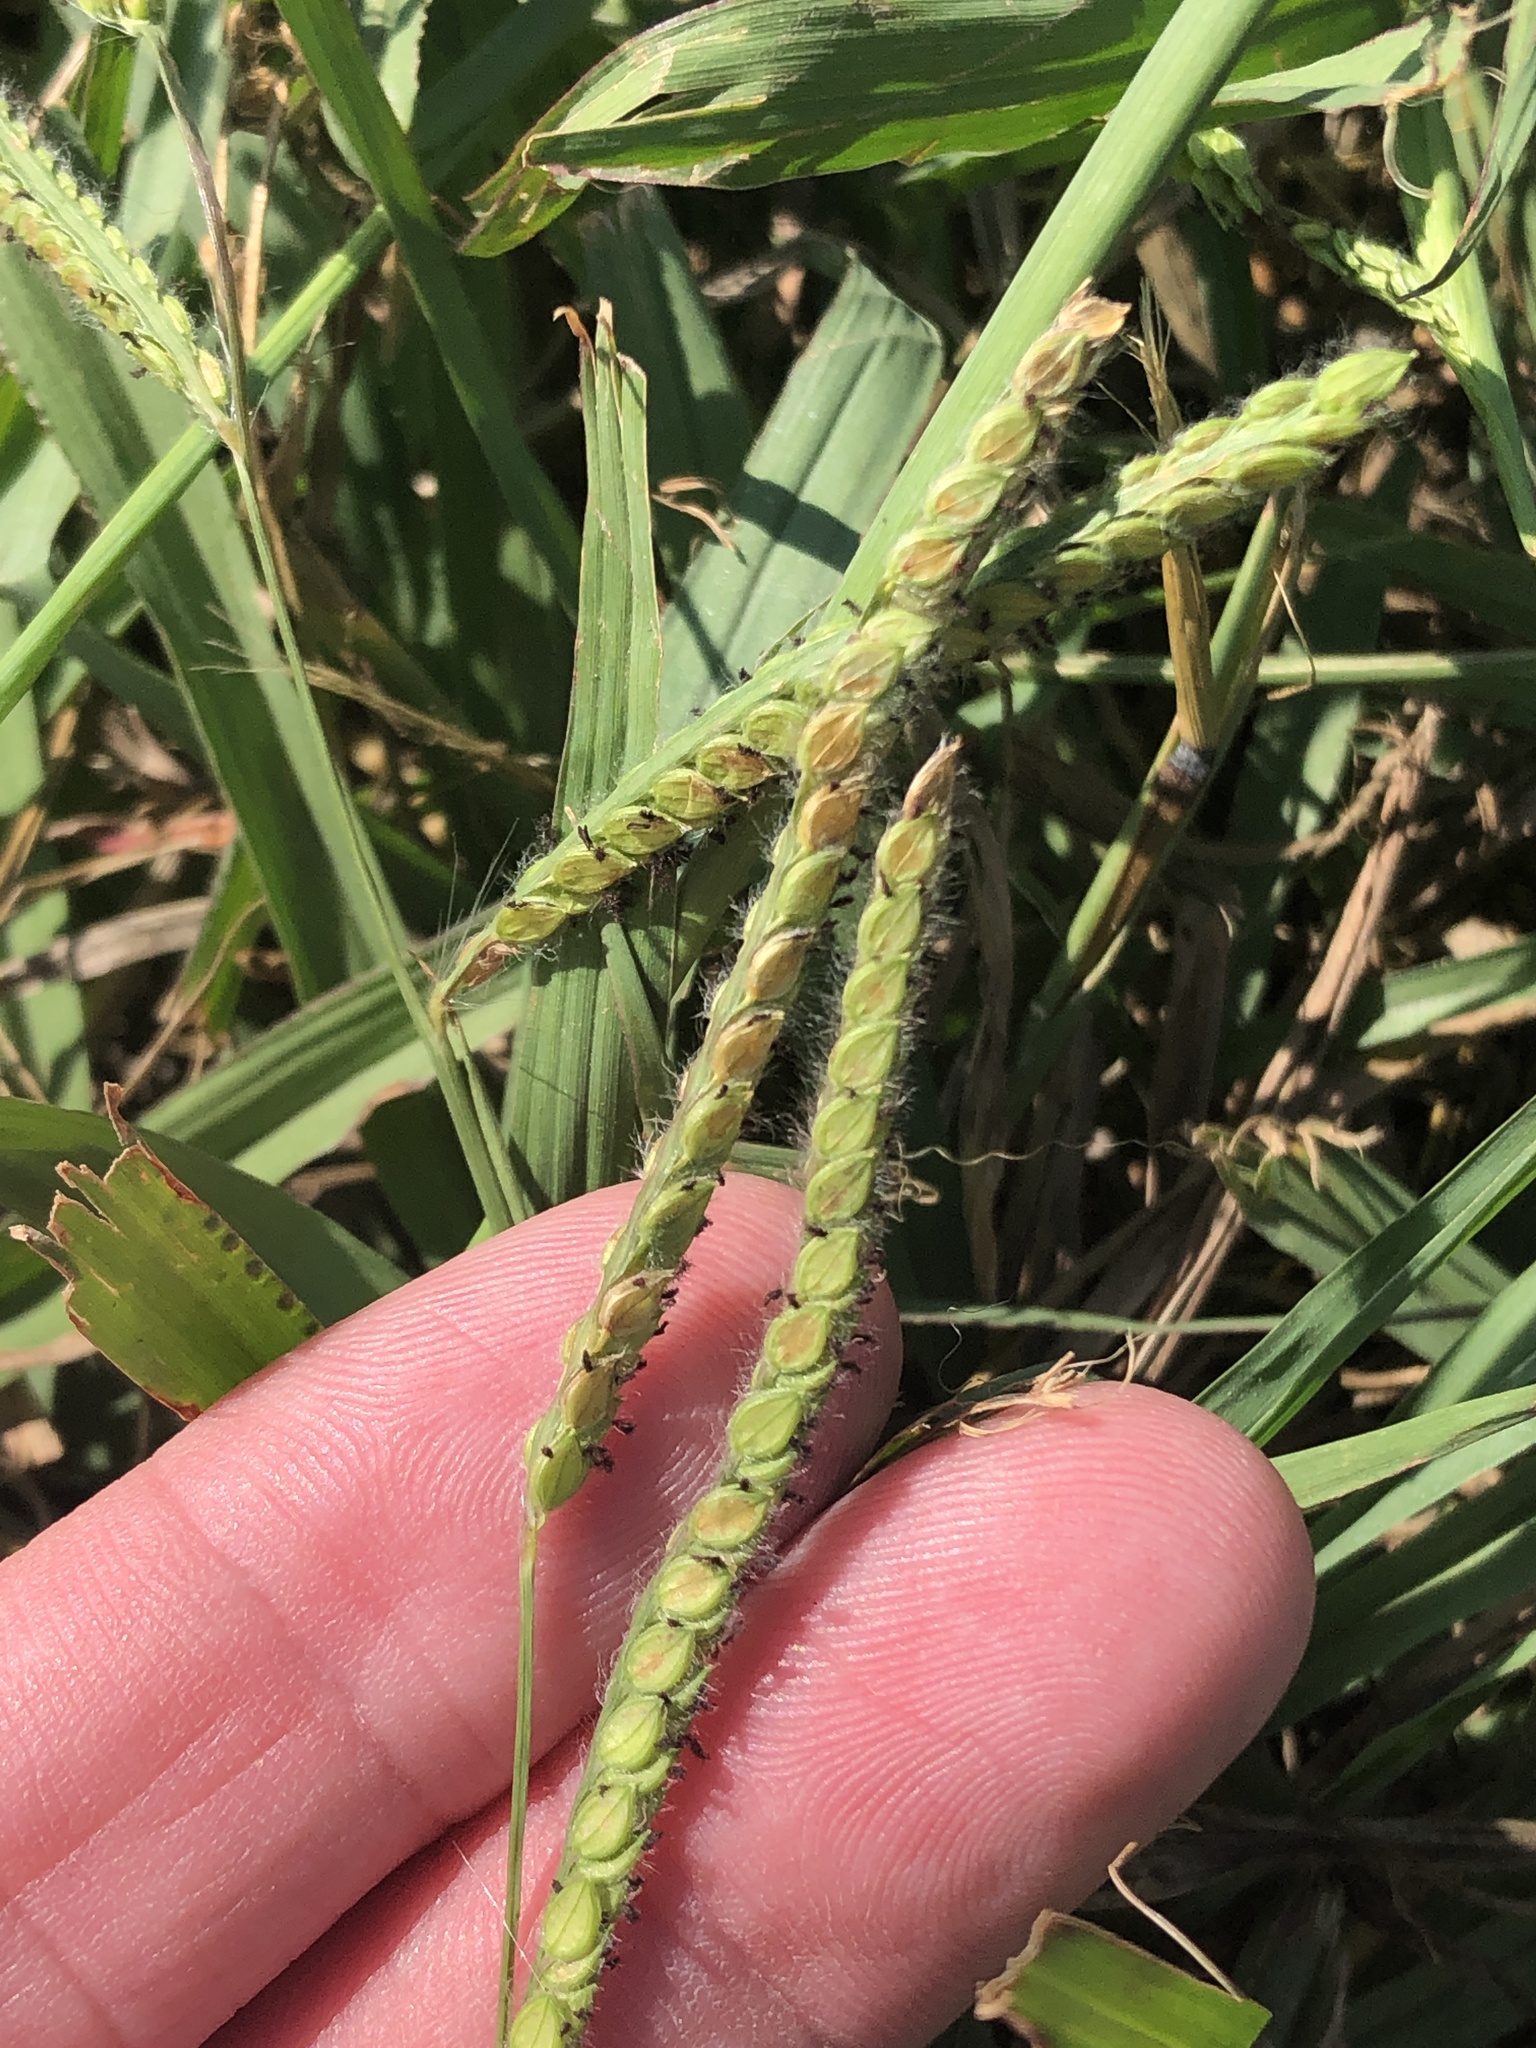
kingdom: Plantae
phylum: Tracheophyta
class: Liliopsida
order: Poales
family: Poaceae
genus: Paspalum
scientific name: Paspalum dilatatum
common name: Dallisgrass
